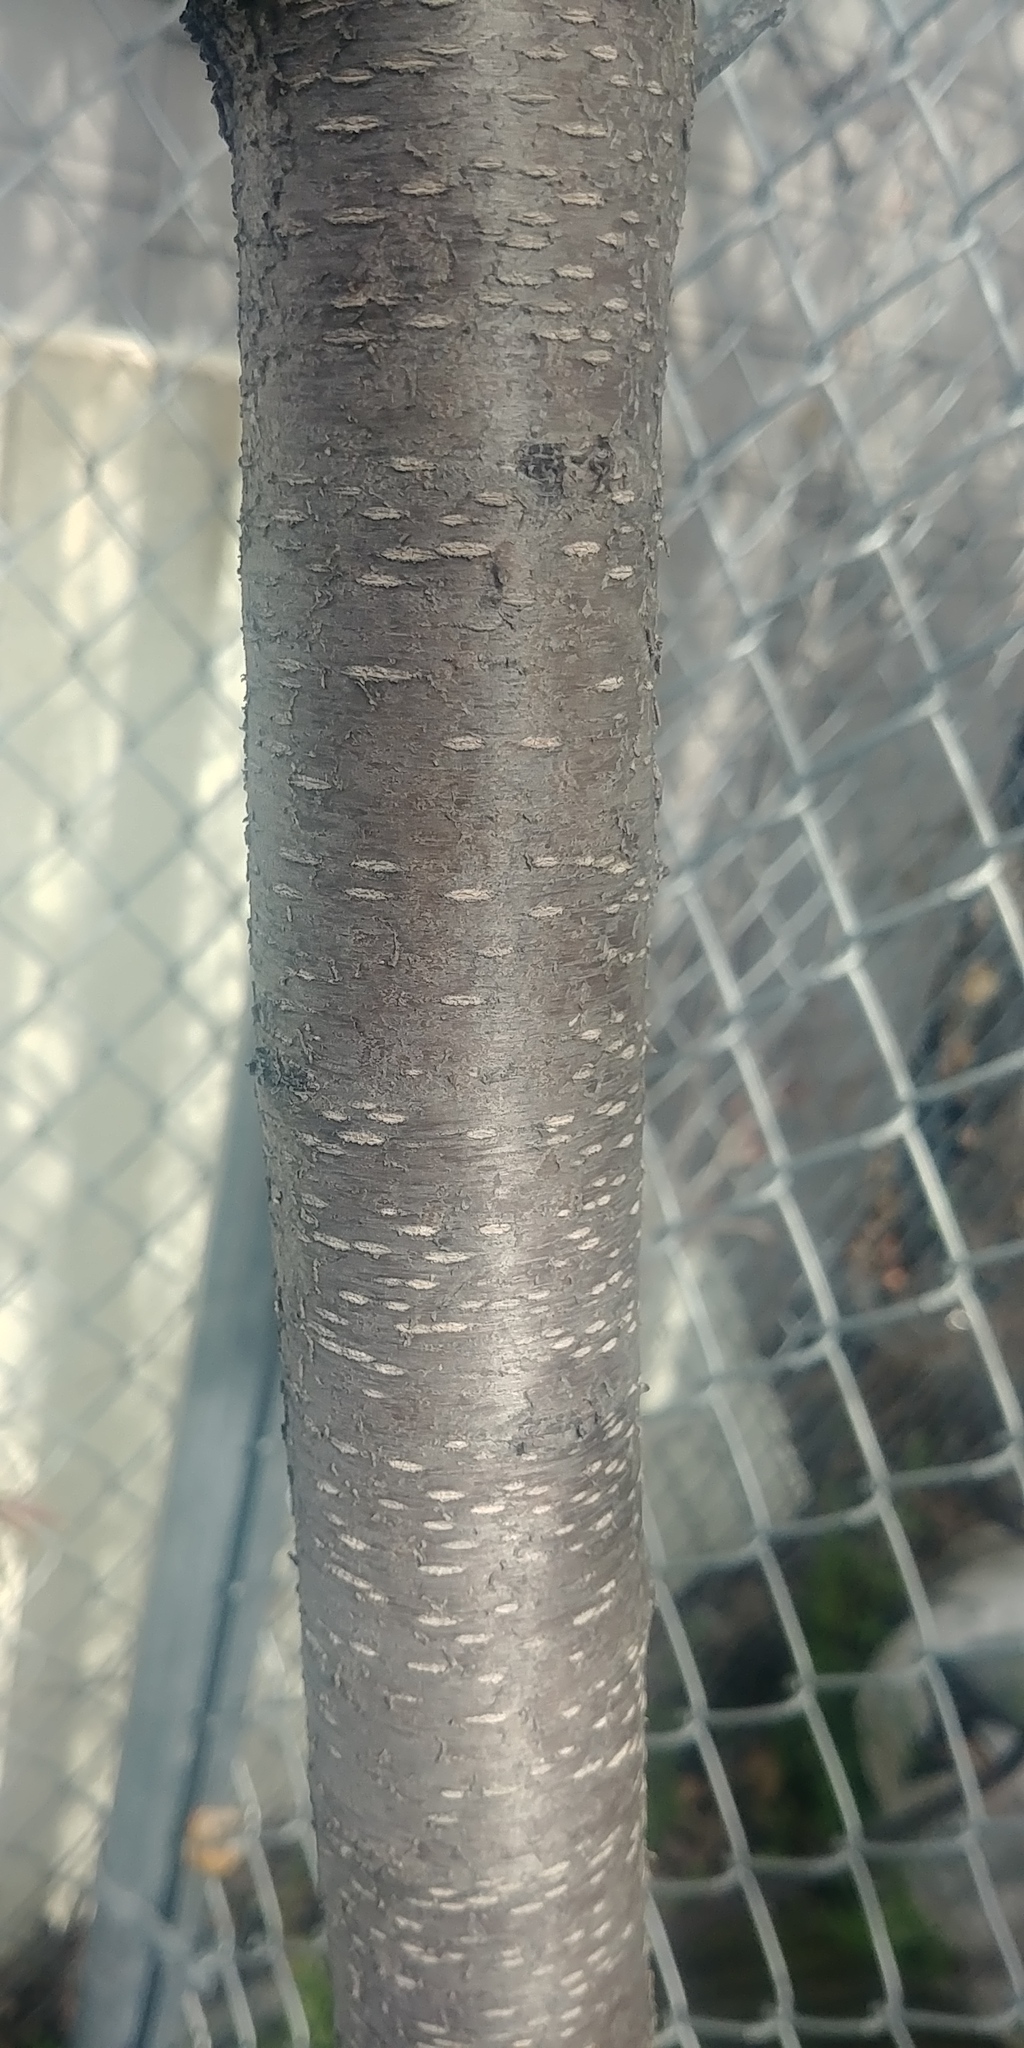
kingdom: Plantae
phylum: Tracheophyta
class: Magnoliopsida
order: Rosales
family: Rosaceae
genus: Prunus
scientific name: Prunus serotina
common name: Black cherry
